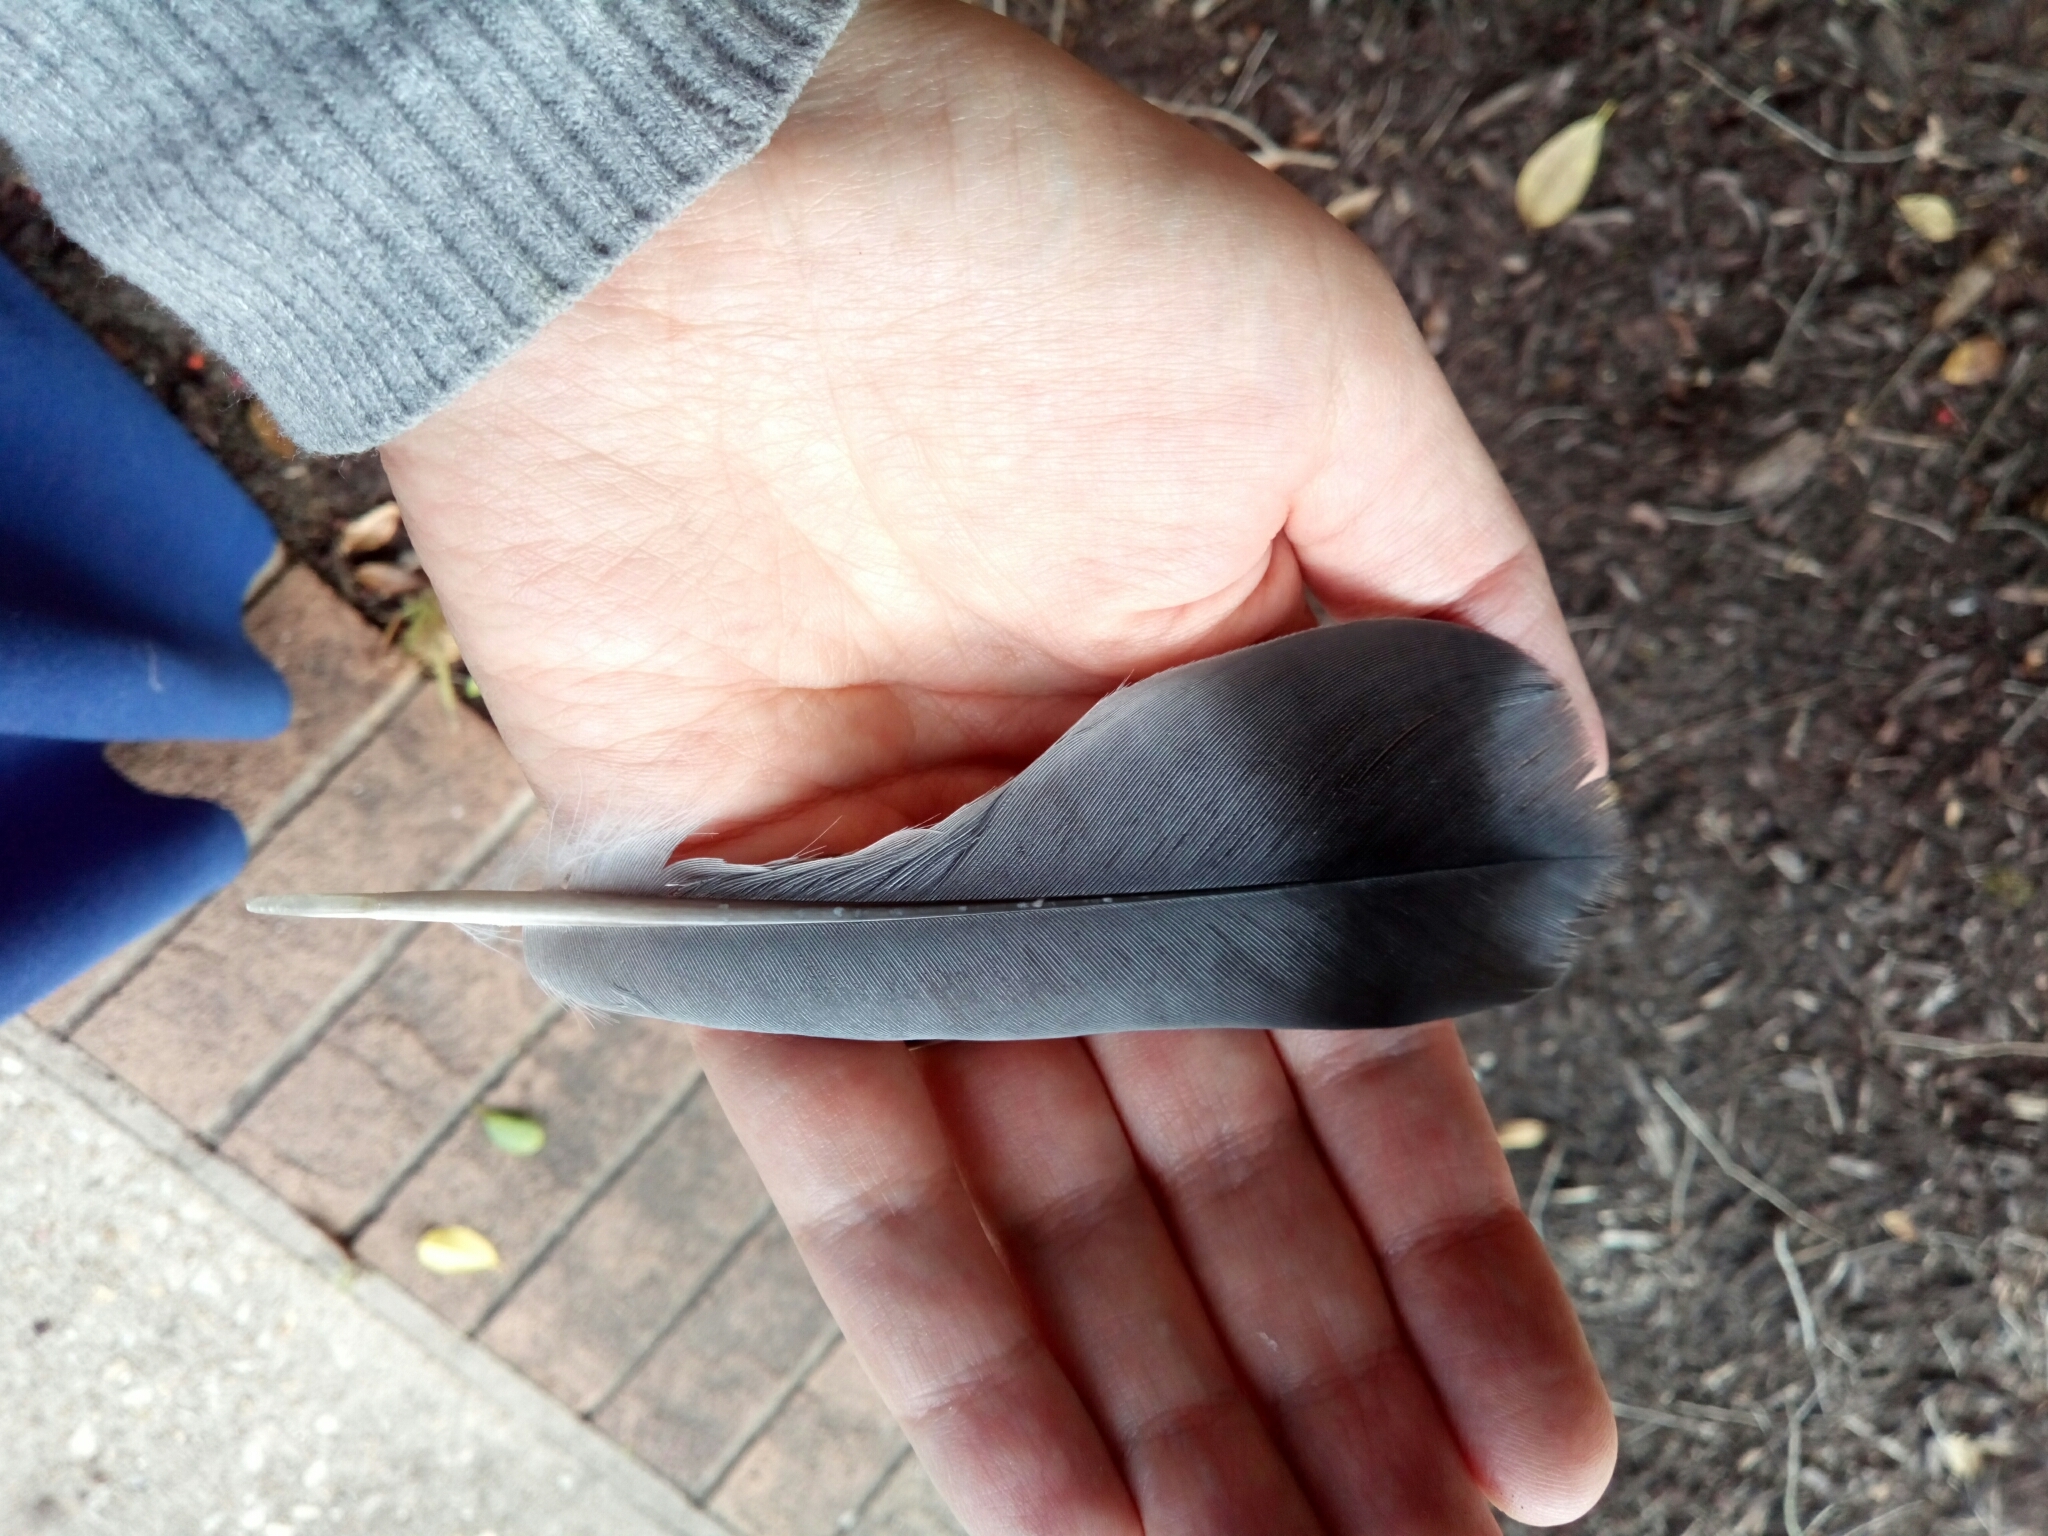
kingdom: Animalia
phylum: Chordata
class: Aves
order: Columbiformes
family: Columbidae
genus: Columba
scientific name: Columba livia
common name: Rock pigeon
